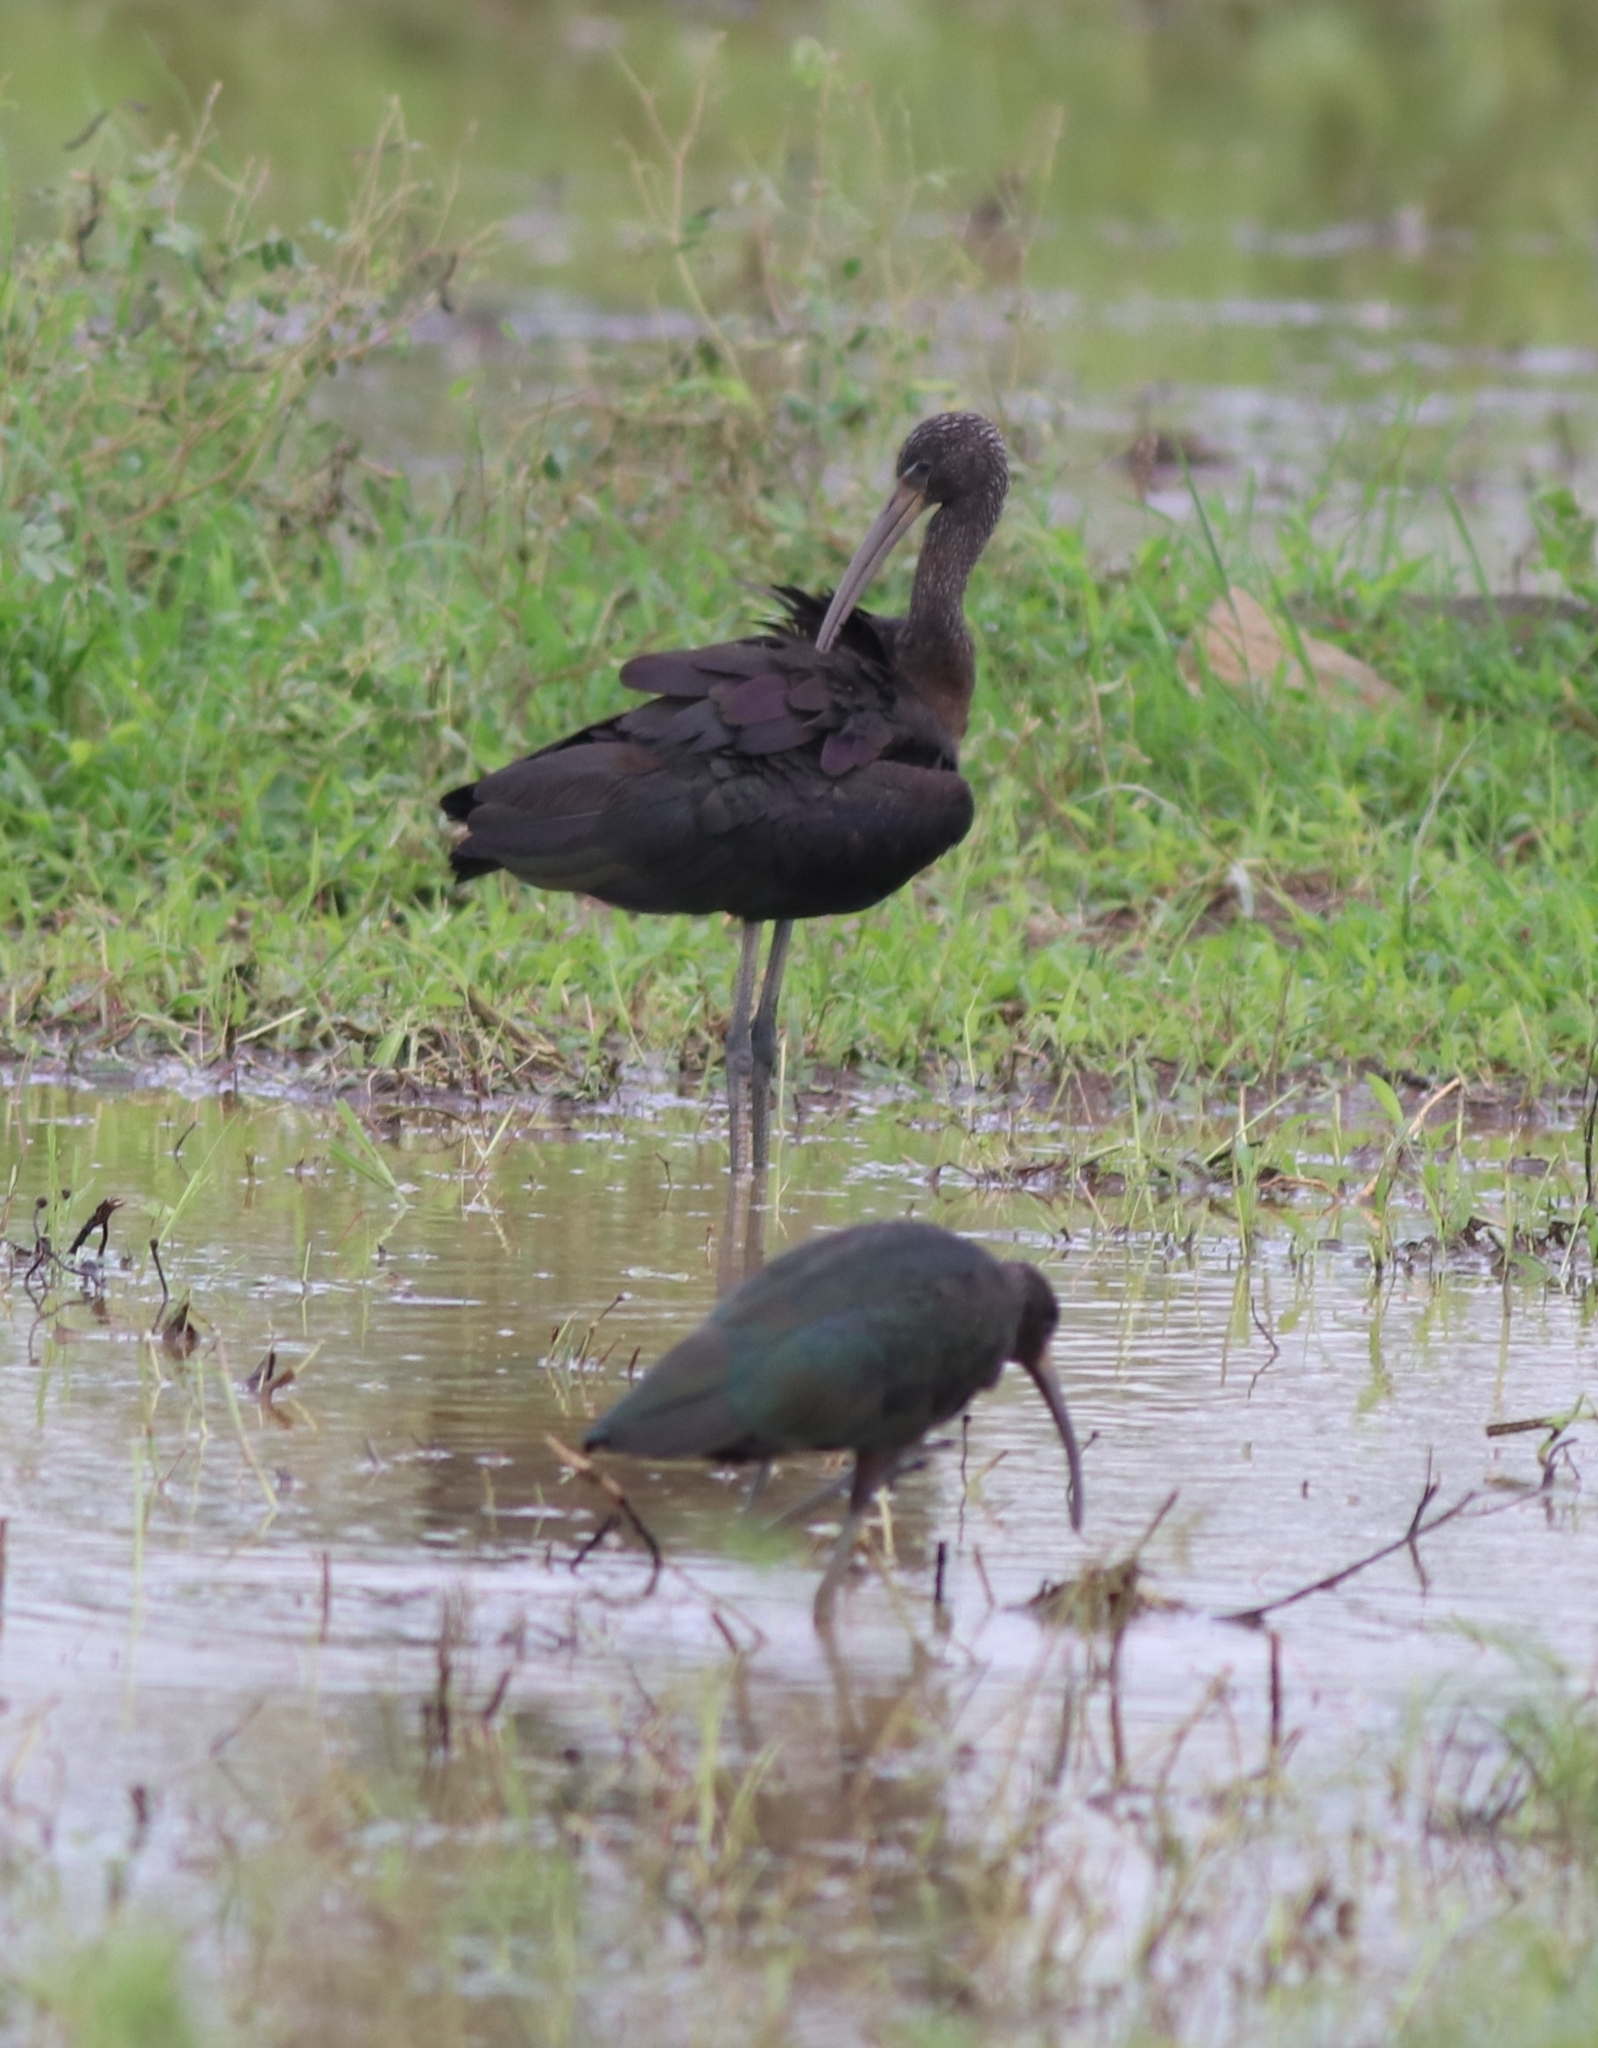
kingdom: Animalia
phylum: Chordata
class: Aves
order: Pelecaniformes
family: Threskiornithidae
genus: Plegadis
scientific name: Plegadis falcinellus
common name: Glossy ibis
